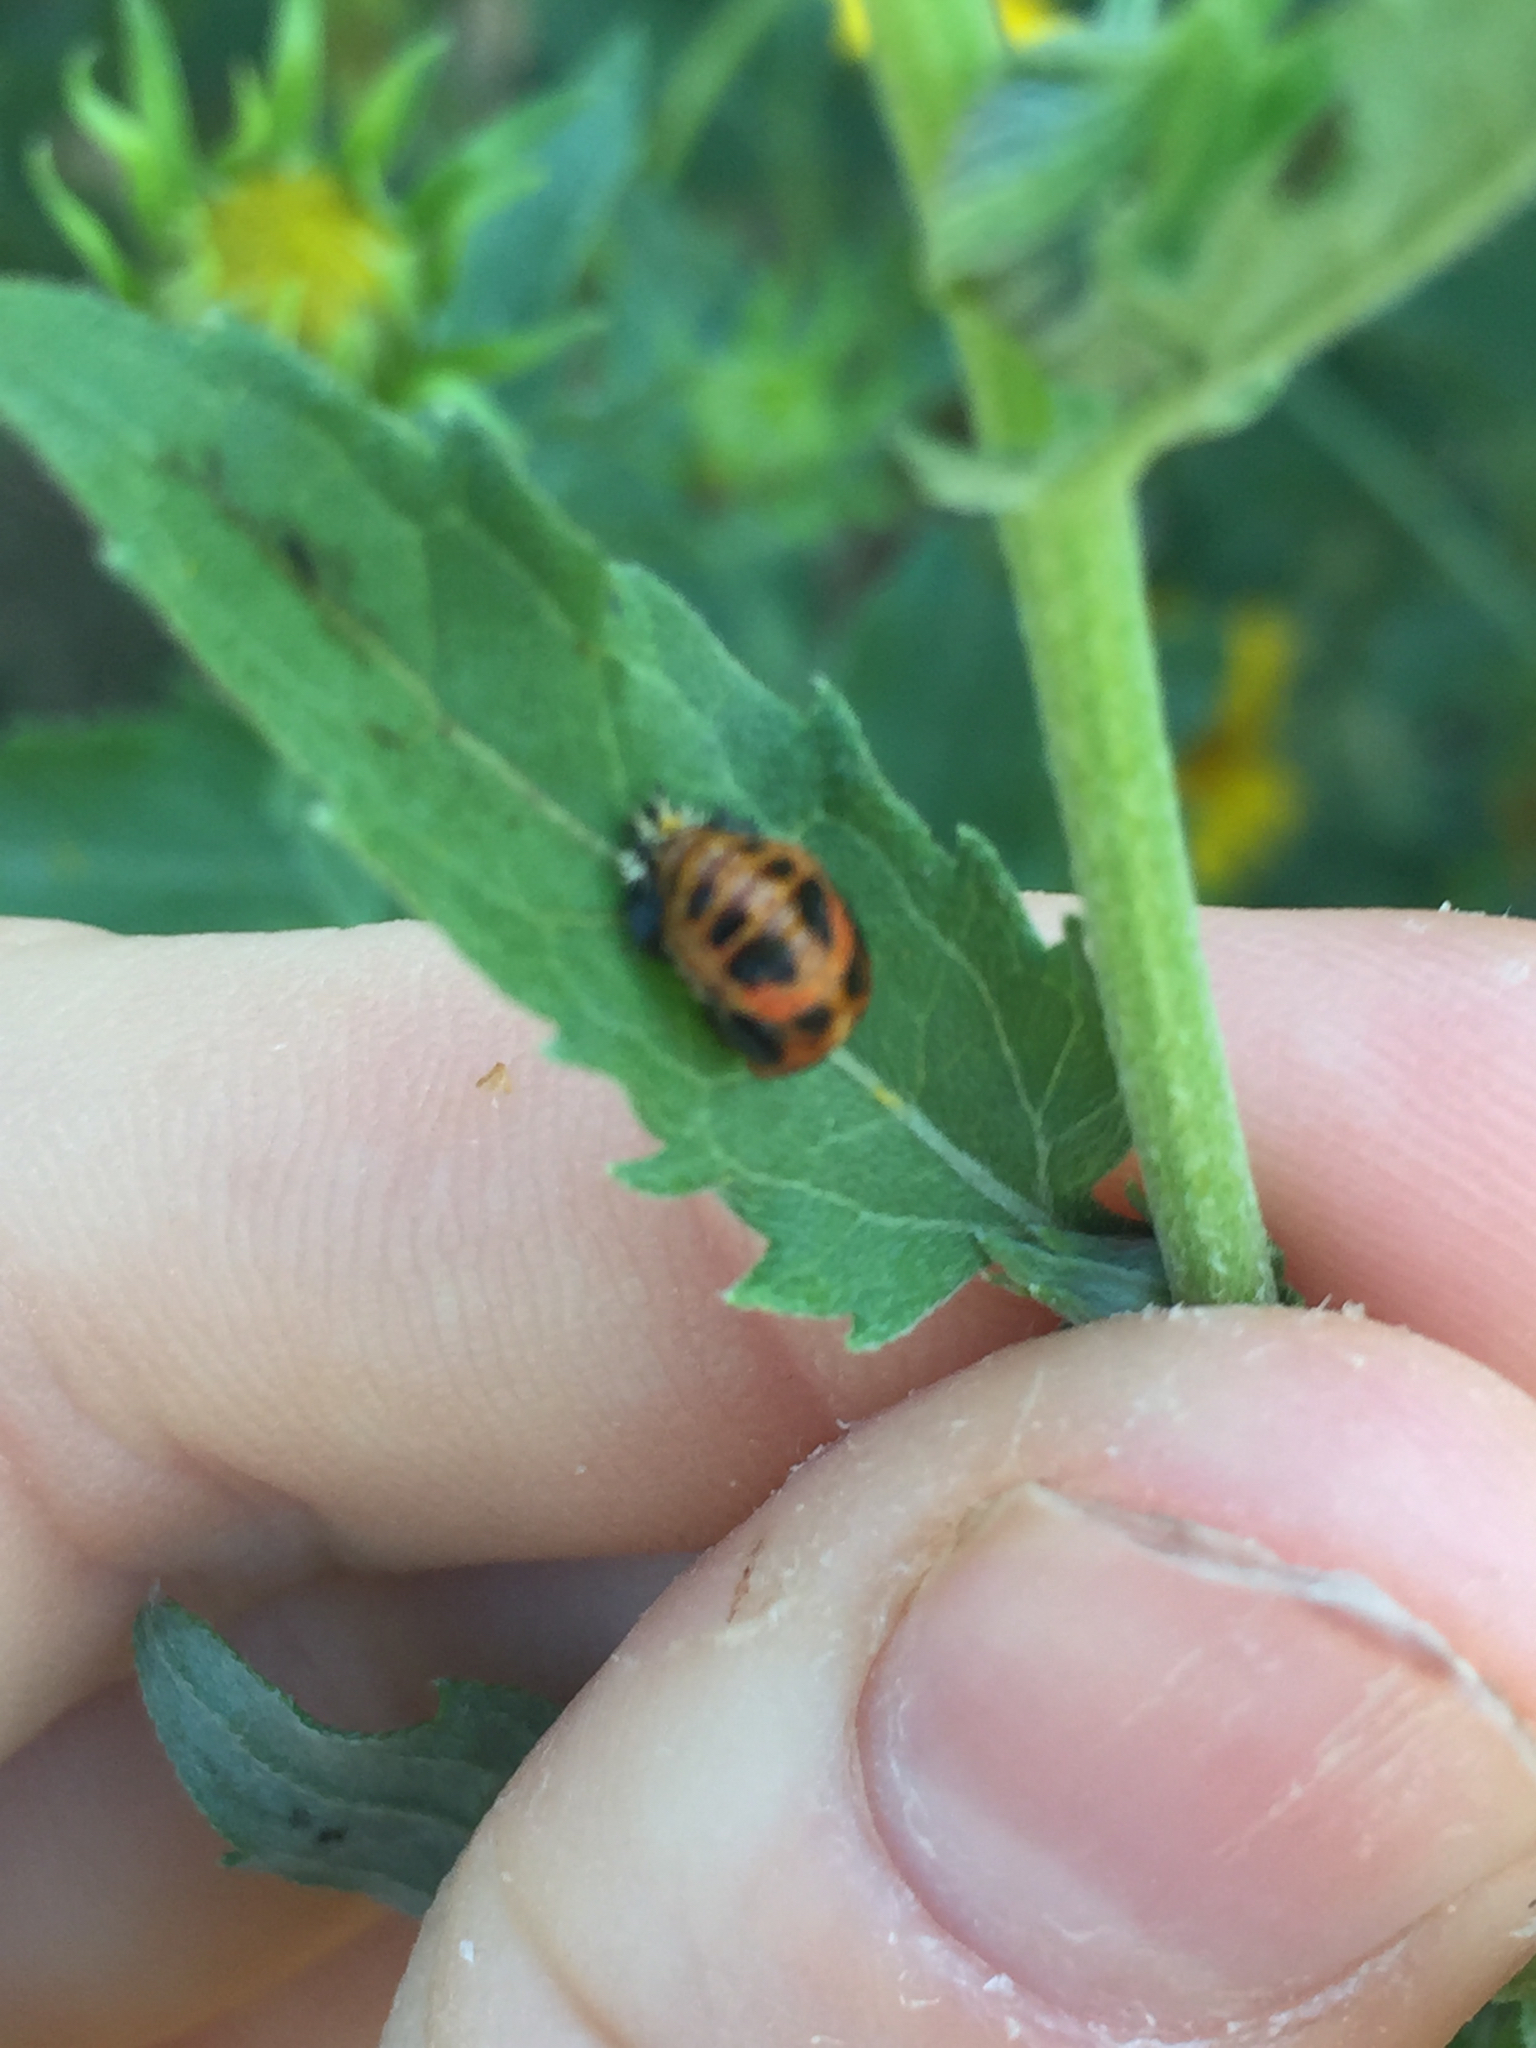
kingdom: Animalia
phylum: Arthropoda
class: Insecta
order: Coleoptera
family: Coccinellidae
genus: Harmonia
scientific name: Harmonia axyridis
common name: Harlequin ladybird
